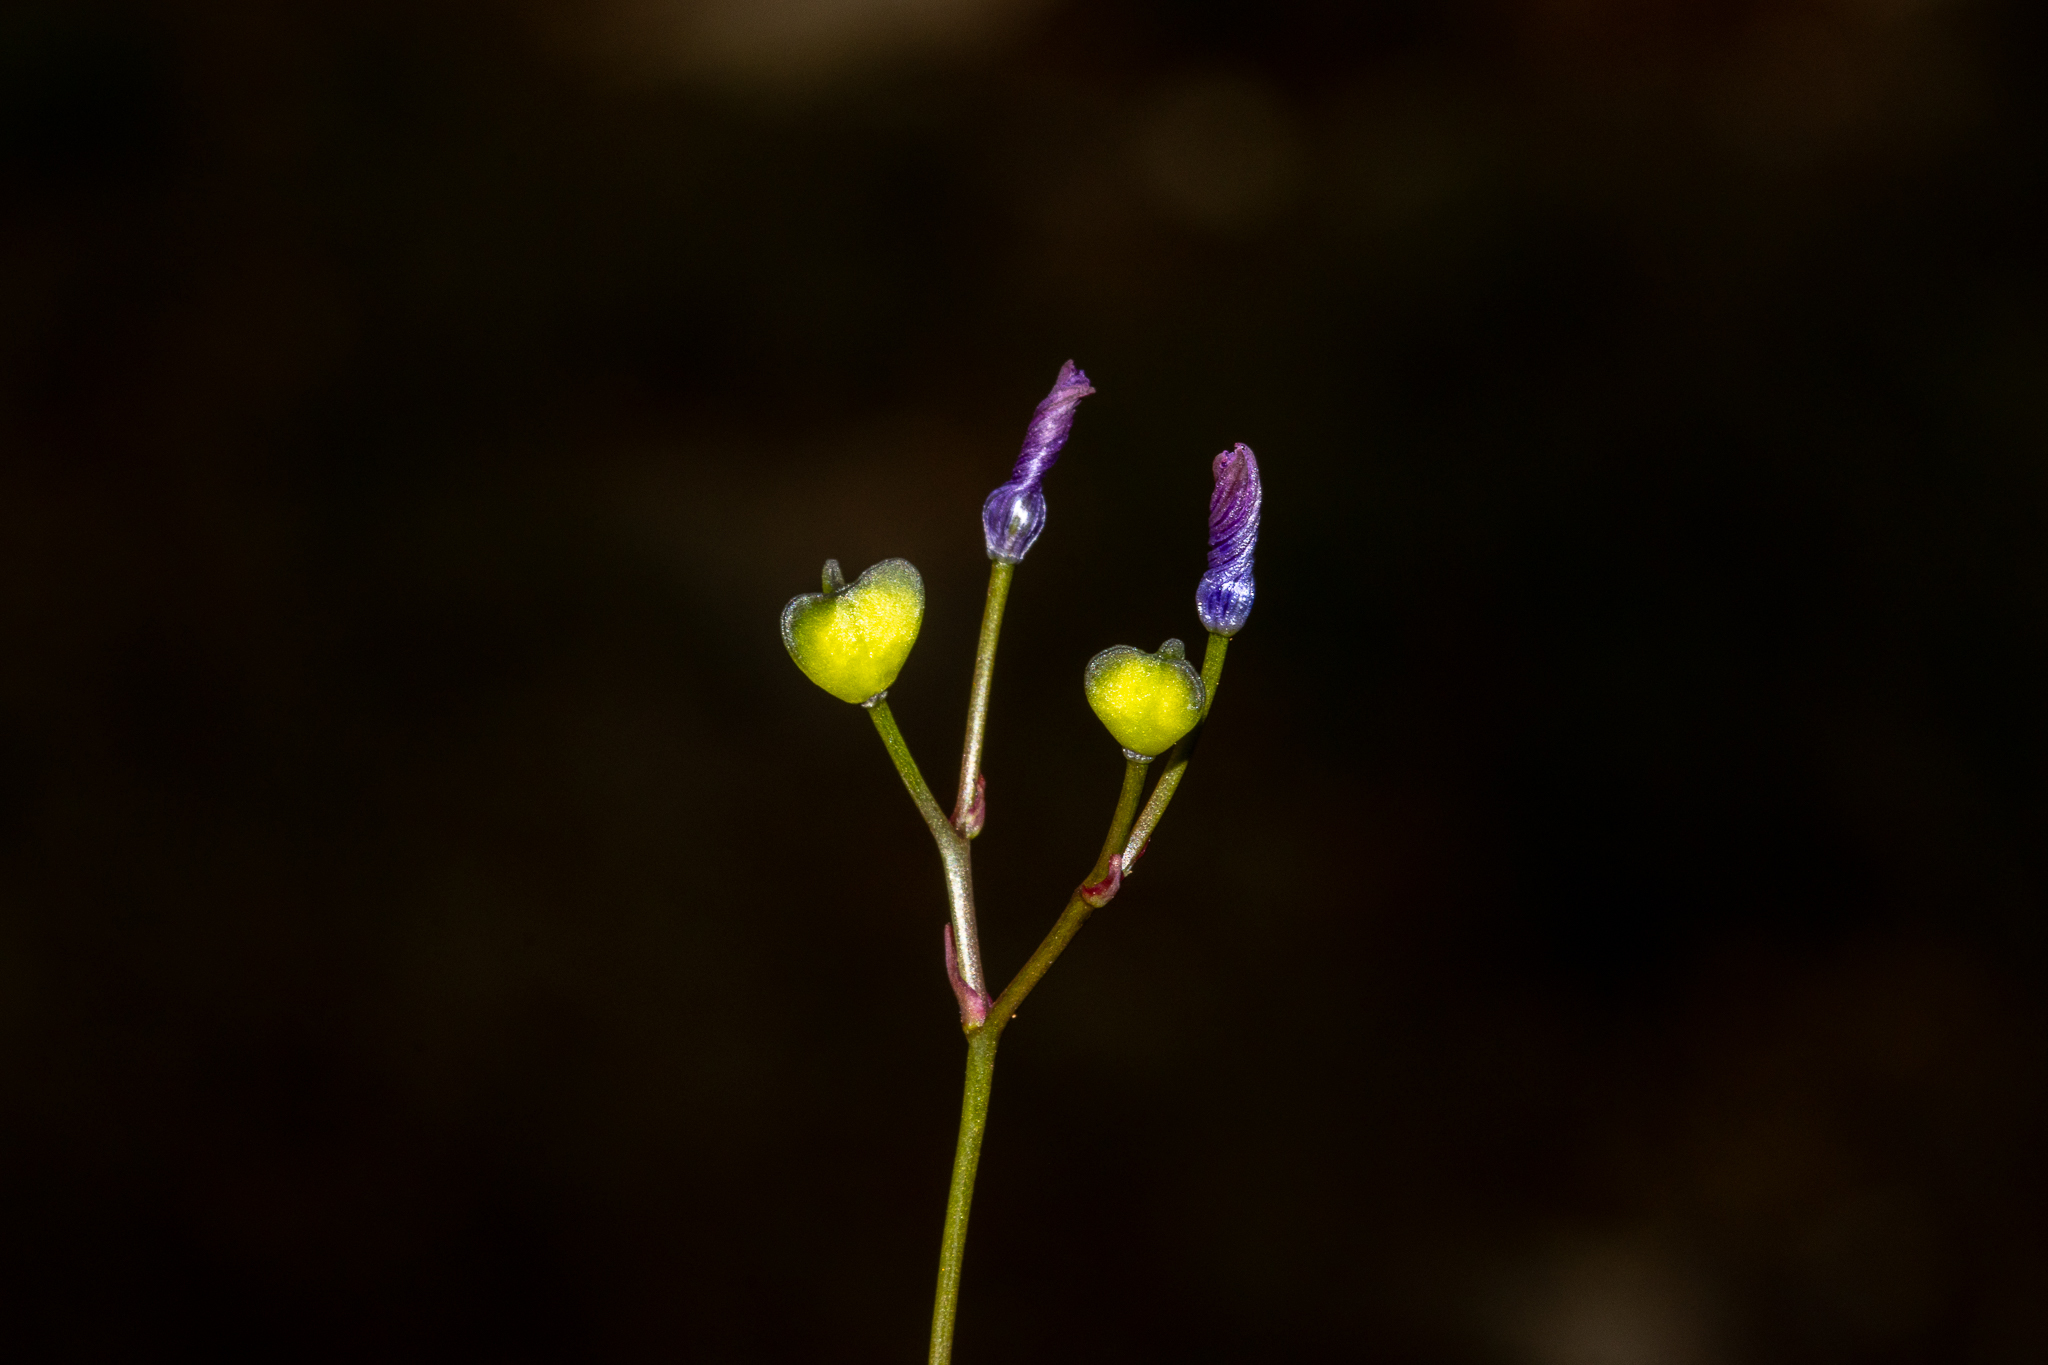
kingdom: Plantae
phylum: Tracheophyta
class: Liliopsida
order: Asparagales
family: Asphodelaceae
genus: Chamaescilla
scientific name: Chamaescilla corymbosa
